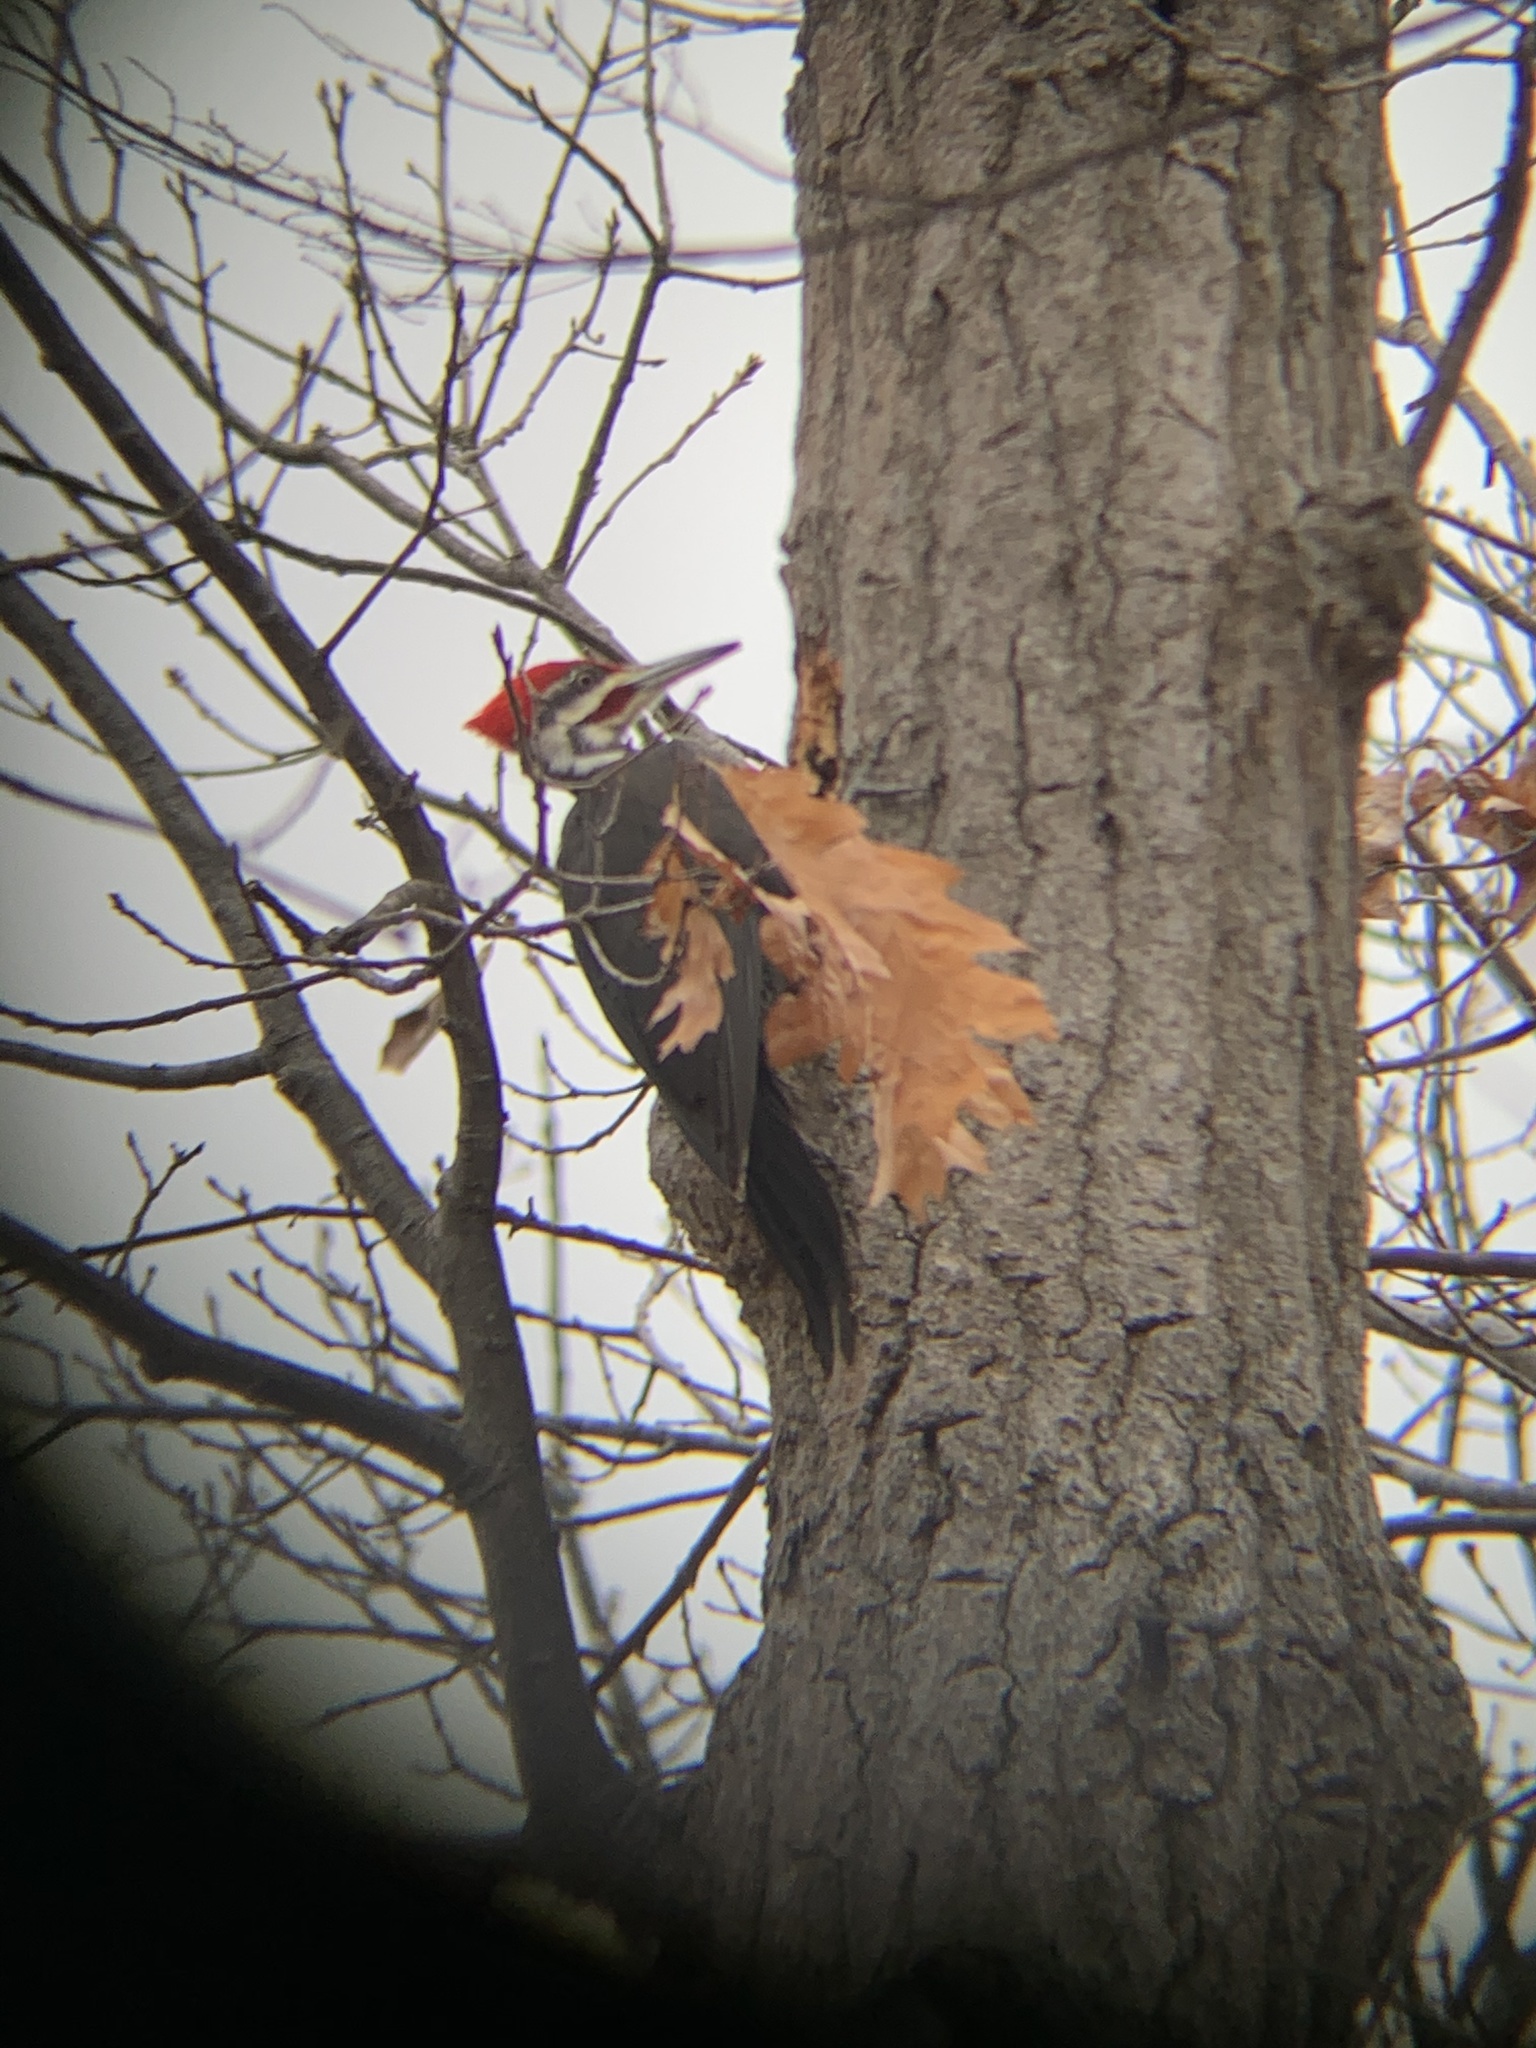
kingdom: Animalia
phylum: Chordata
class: Aves
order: Piciformes
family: Picidae
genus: Dryocopus
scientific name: Dryocopus pileatus
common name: Pileated woodpecker
